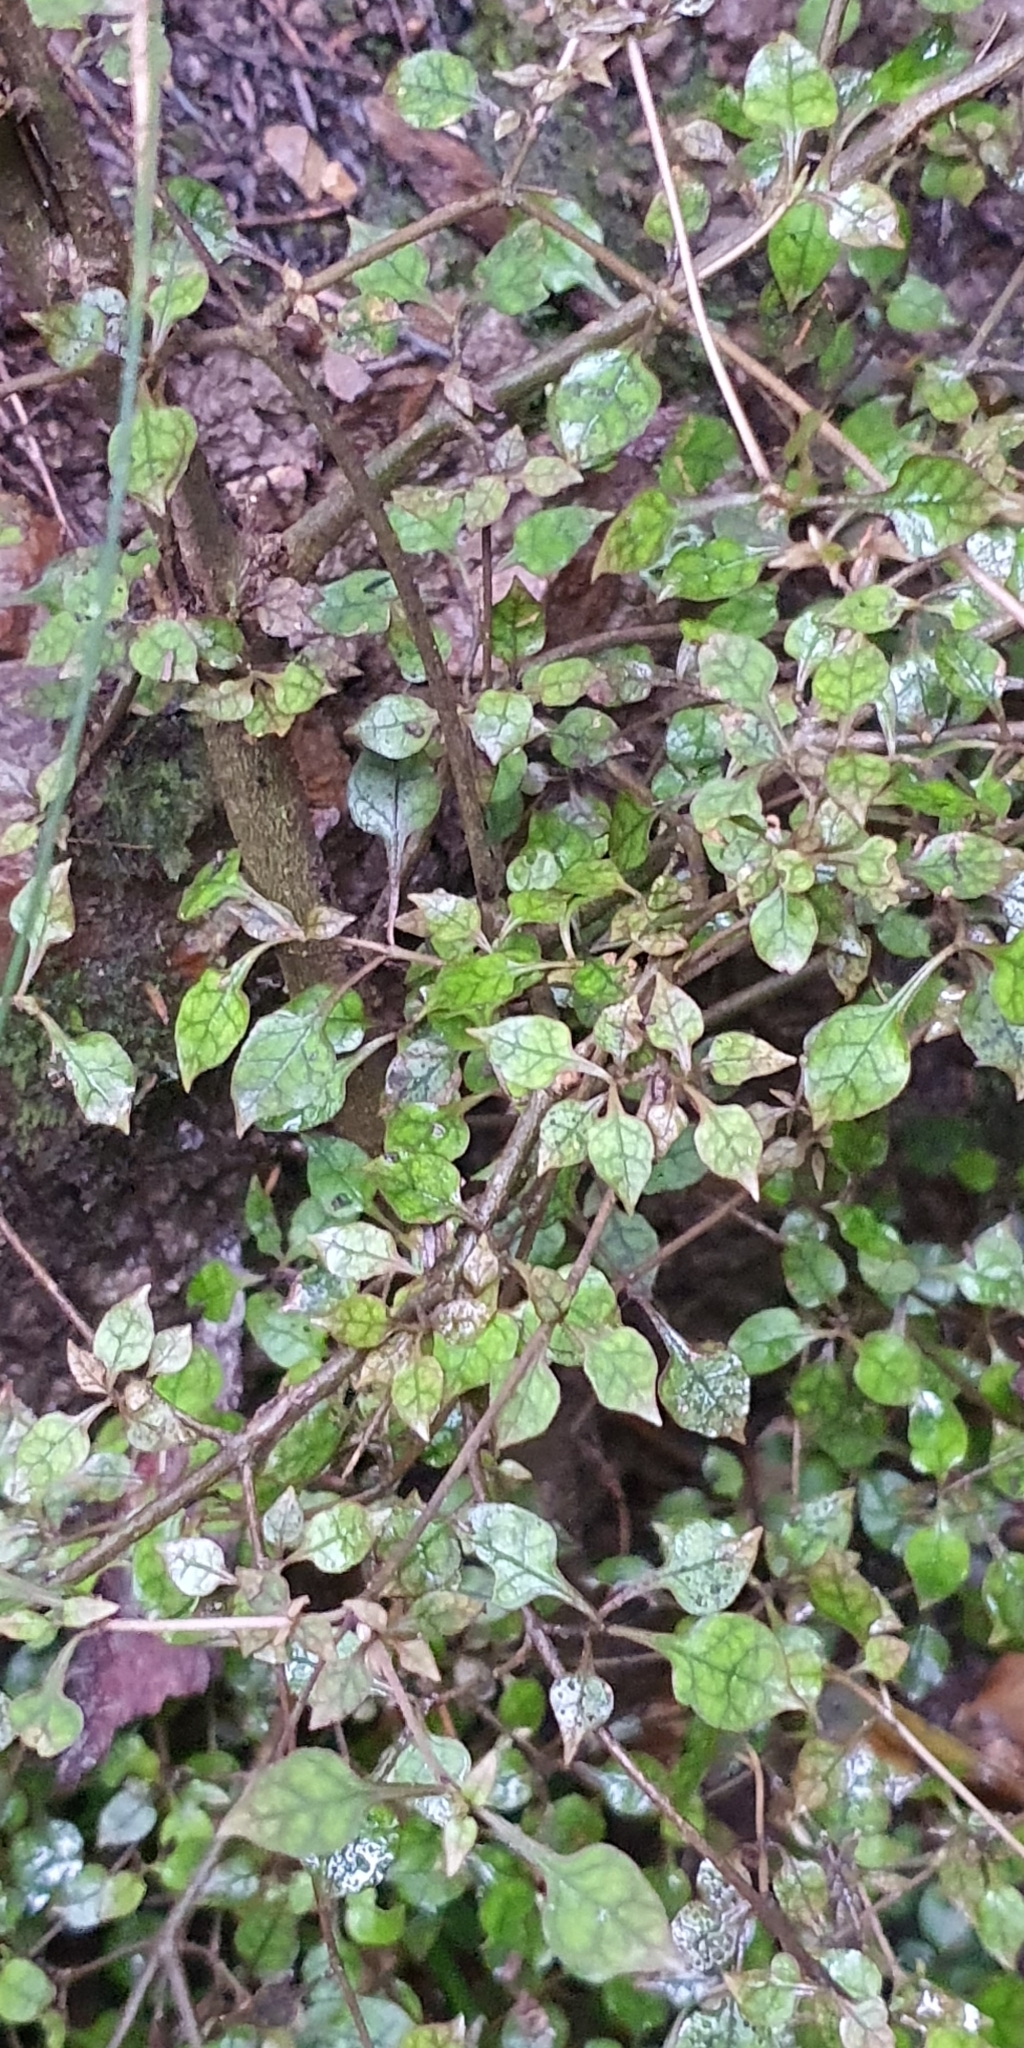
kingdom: Plantae
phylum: Tracheophyta
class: Magnoliopsida
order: Gentianales
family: Rubiaceae
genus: Coprosma
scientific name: Coprosma areolata
